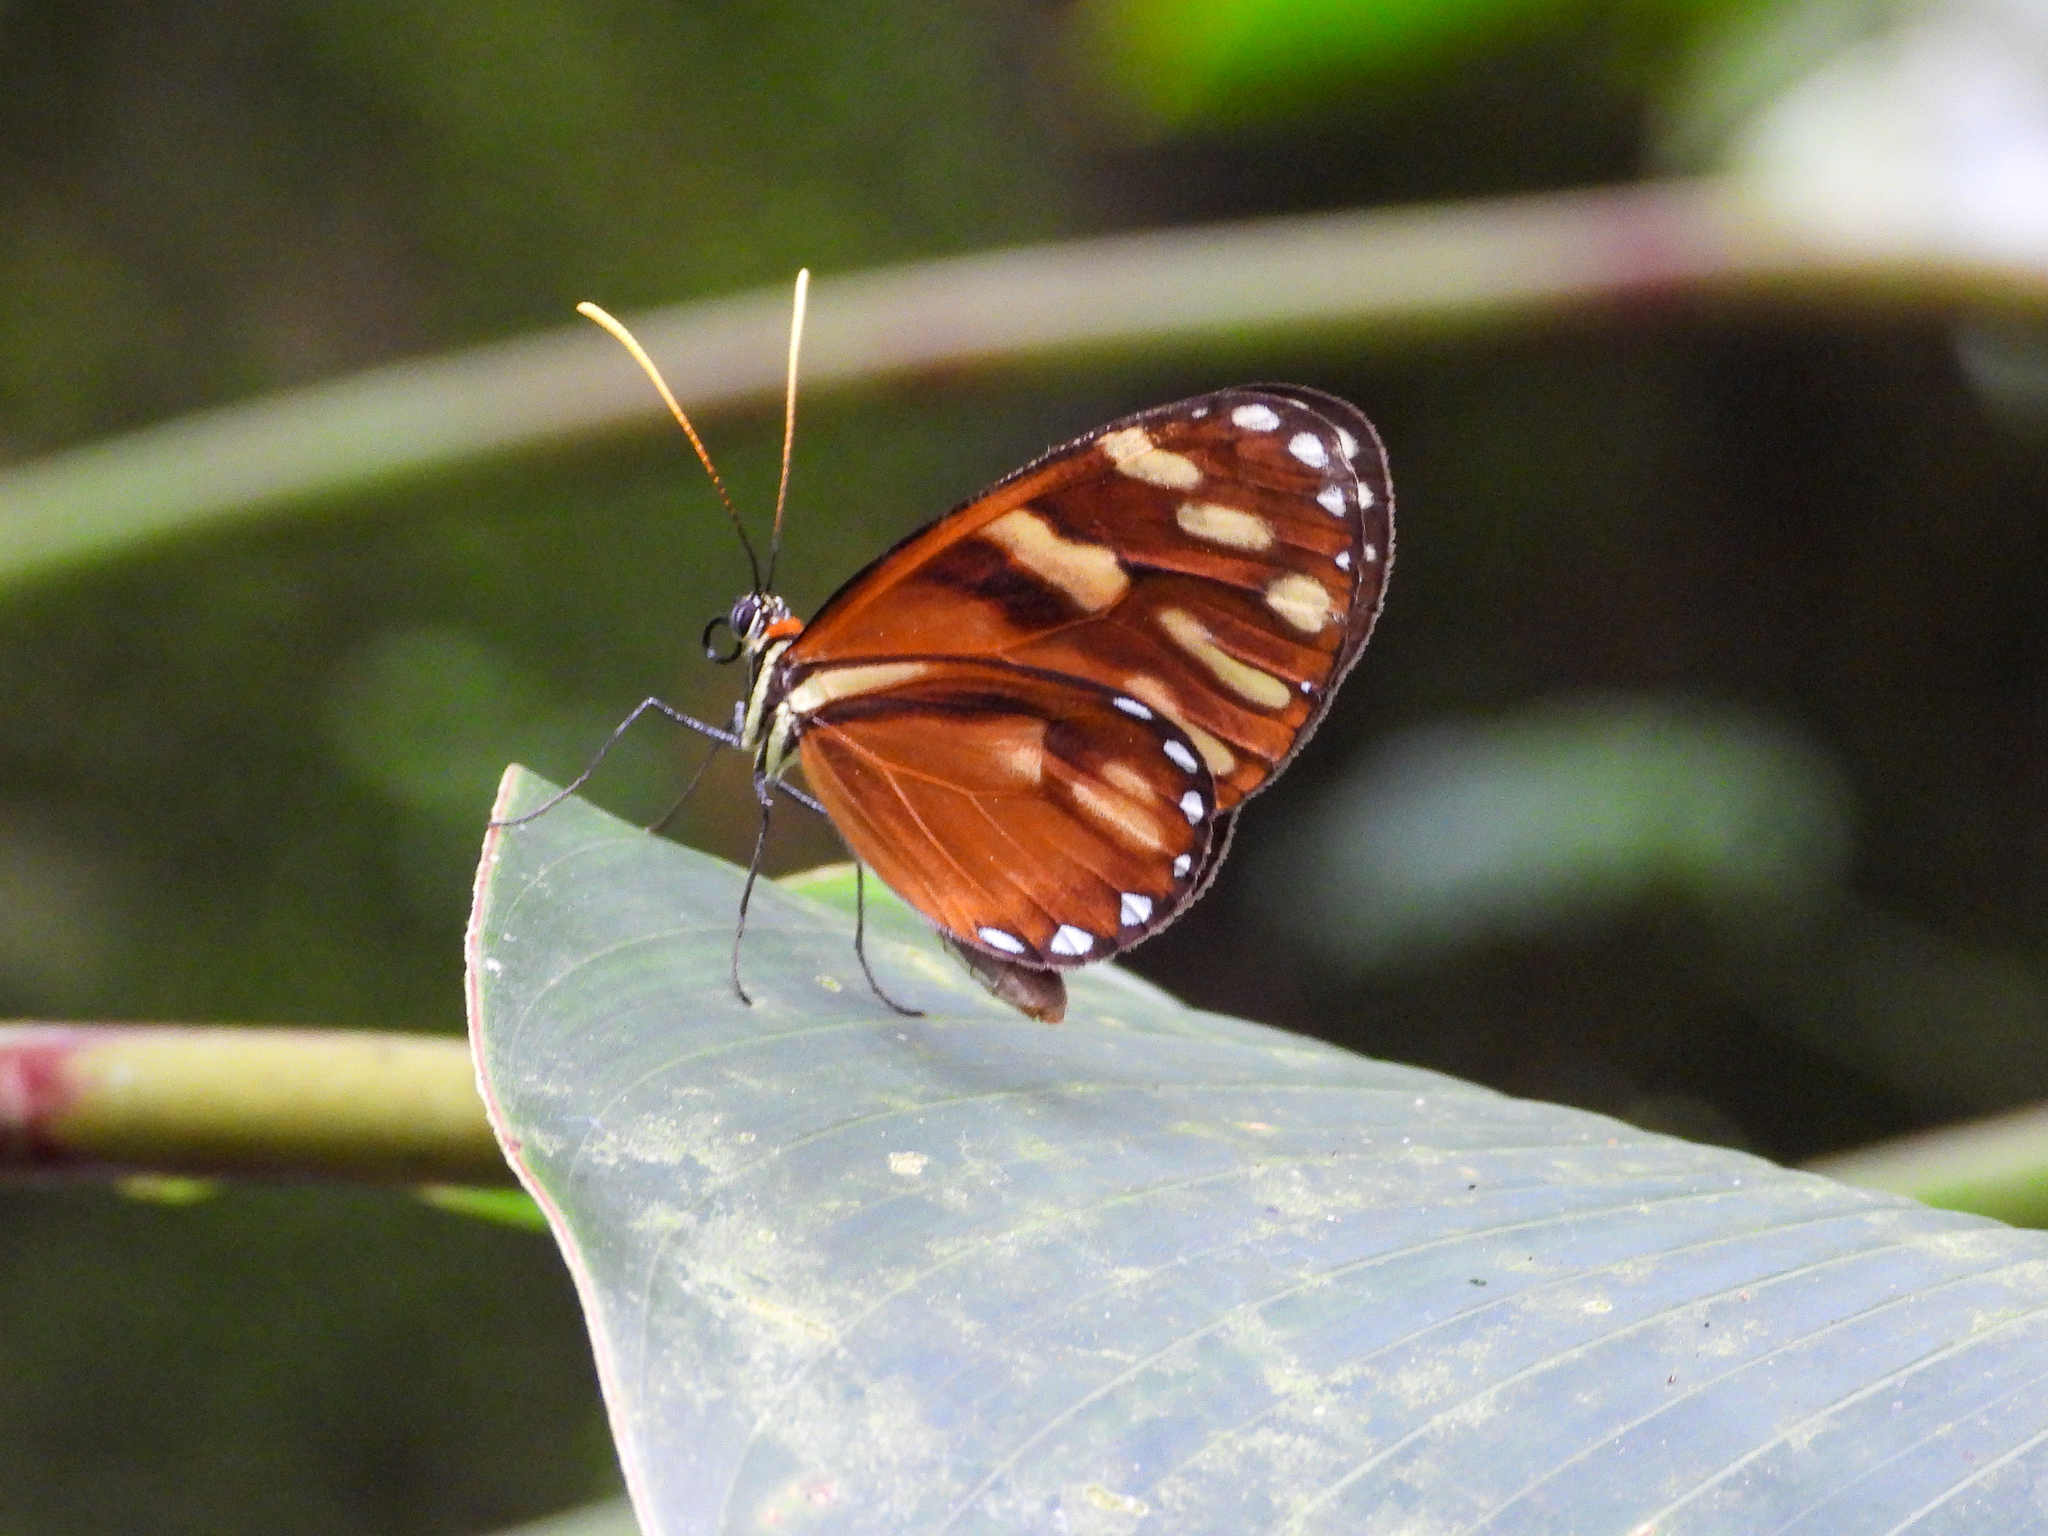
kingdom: Animalia
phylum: Arthropoda
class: Insecta
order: Lepidoptera
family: Nymphalidae
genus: Ithomia
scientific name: Ithomia heraldica
